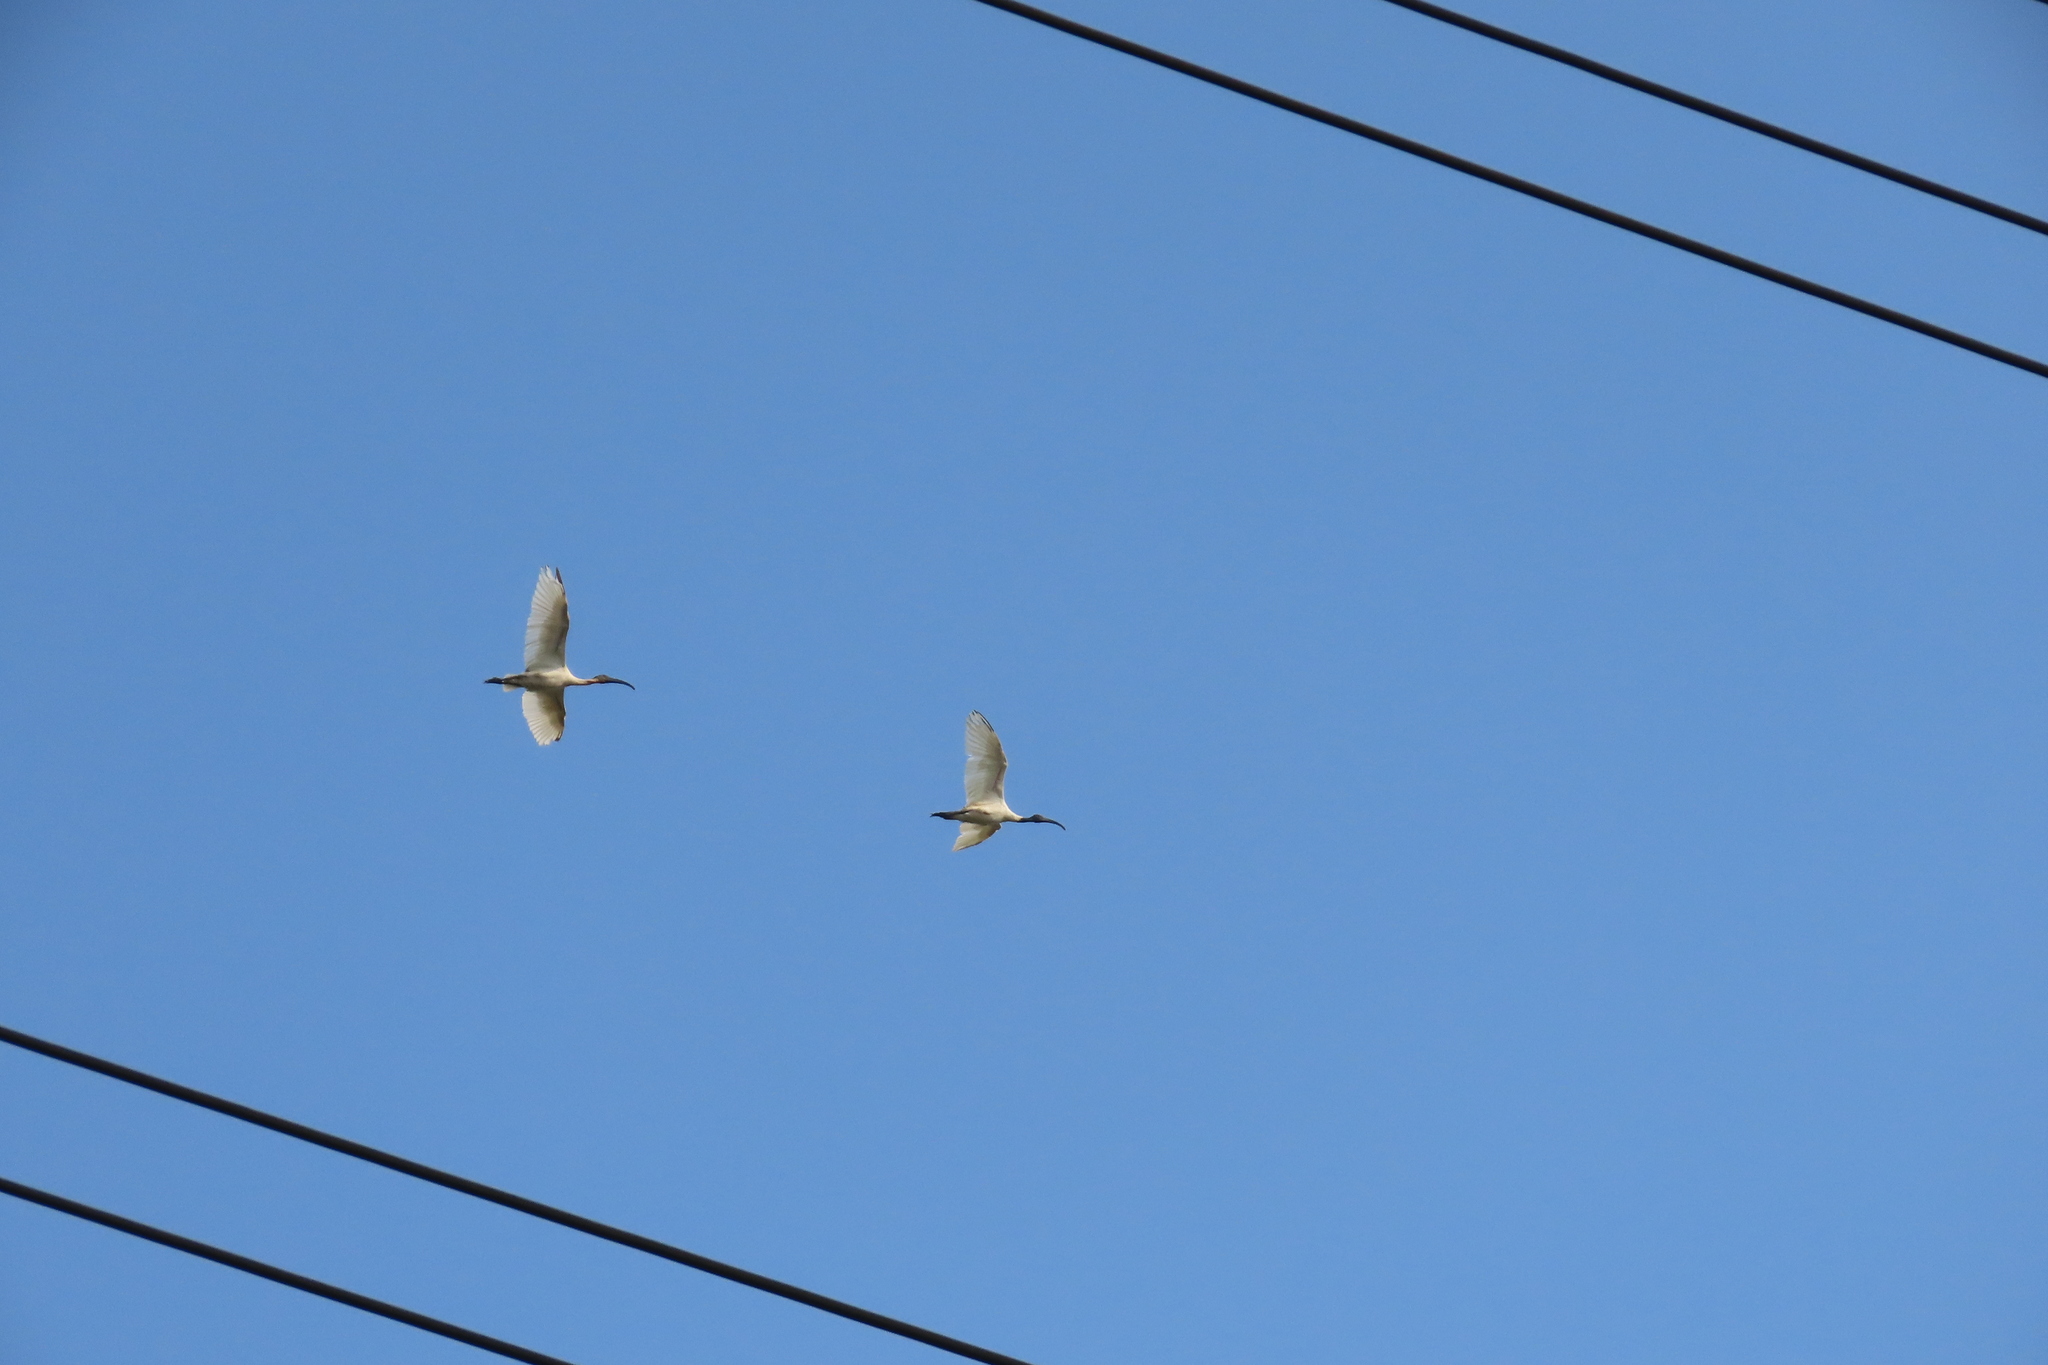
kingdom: Animalia
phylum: Chordata
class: Aves
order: Pelecaniformes
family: Threskiornithidae
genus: Threskiornis
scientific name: Threskiornis melanocephalus
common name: Black-headed ibis
